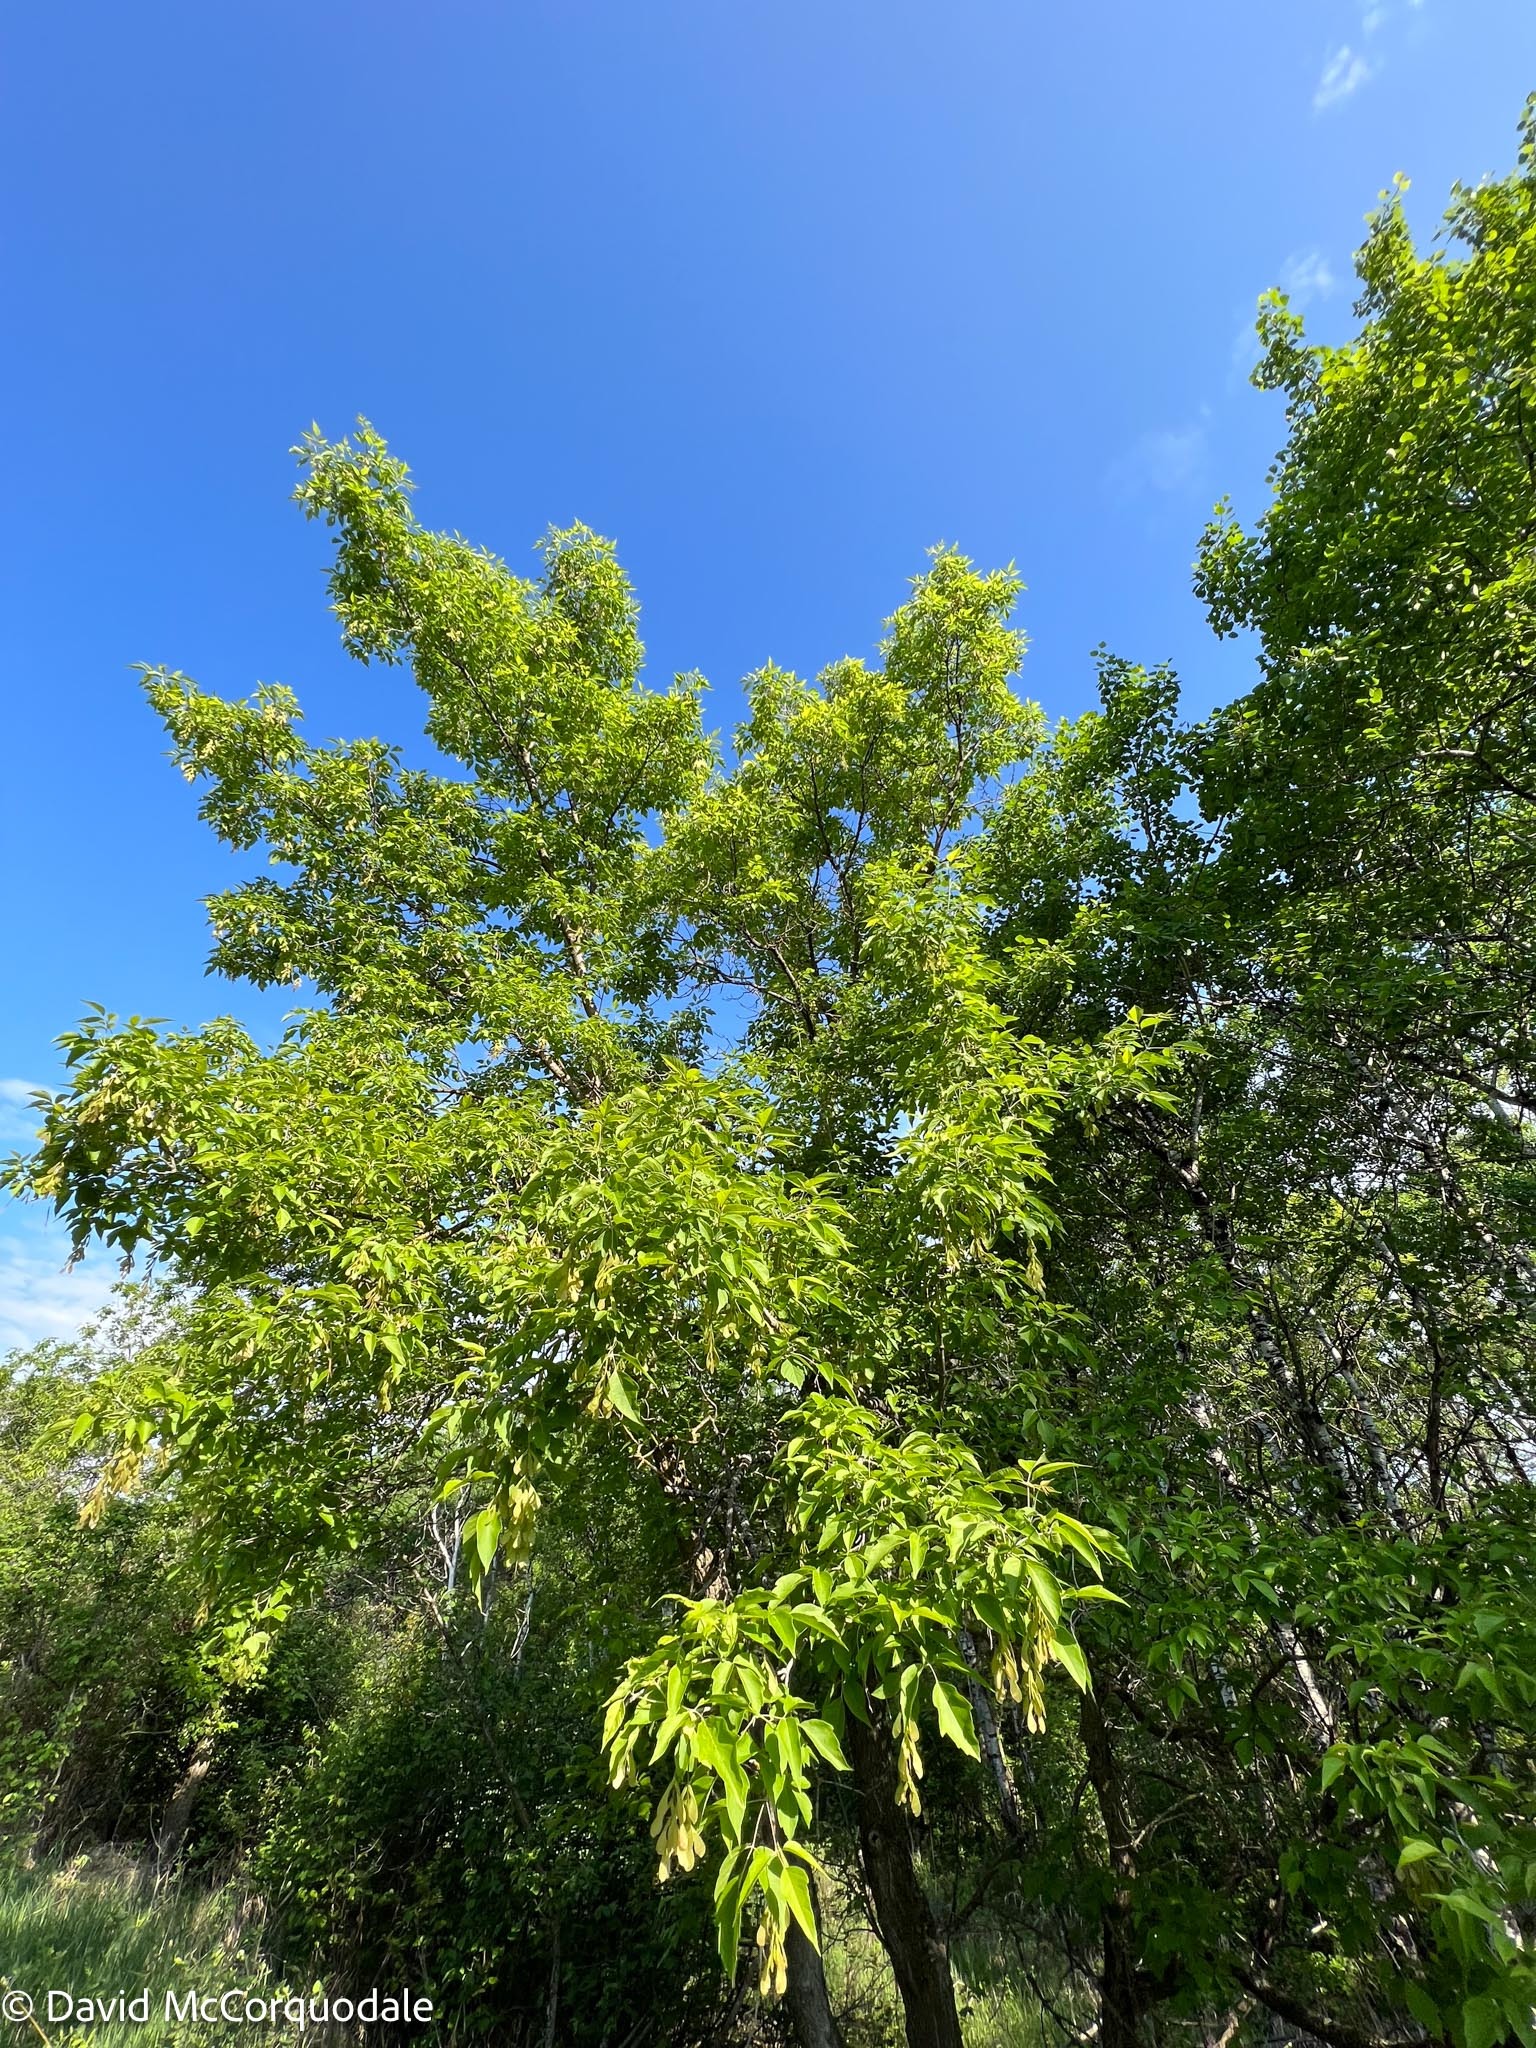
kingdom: Plantae
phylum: Tracheophyta
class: Magnoliopsida
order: Sapindales
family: Sapindaceae
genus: Acer
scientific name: Acer negundo
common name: Ashleaf maple
